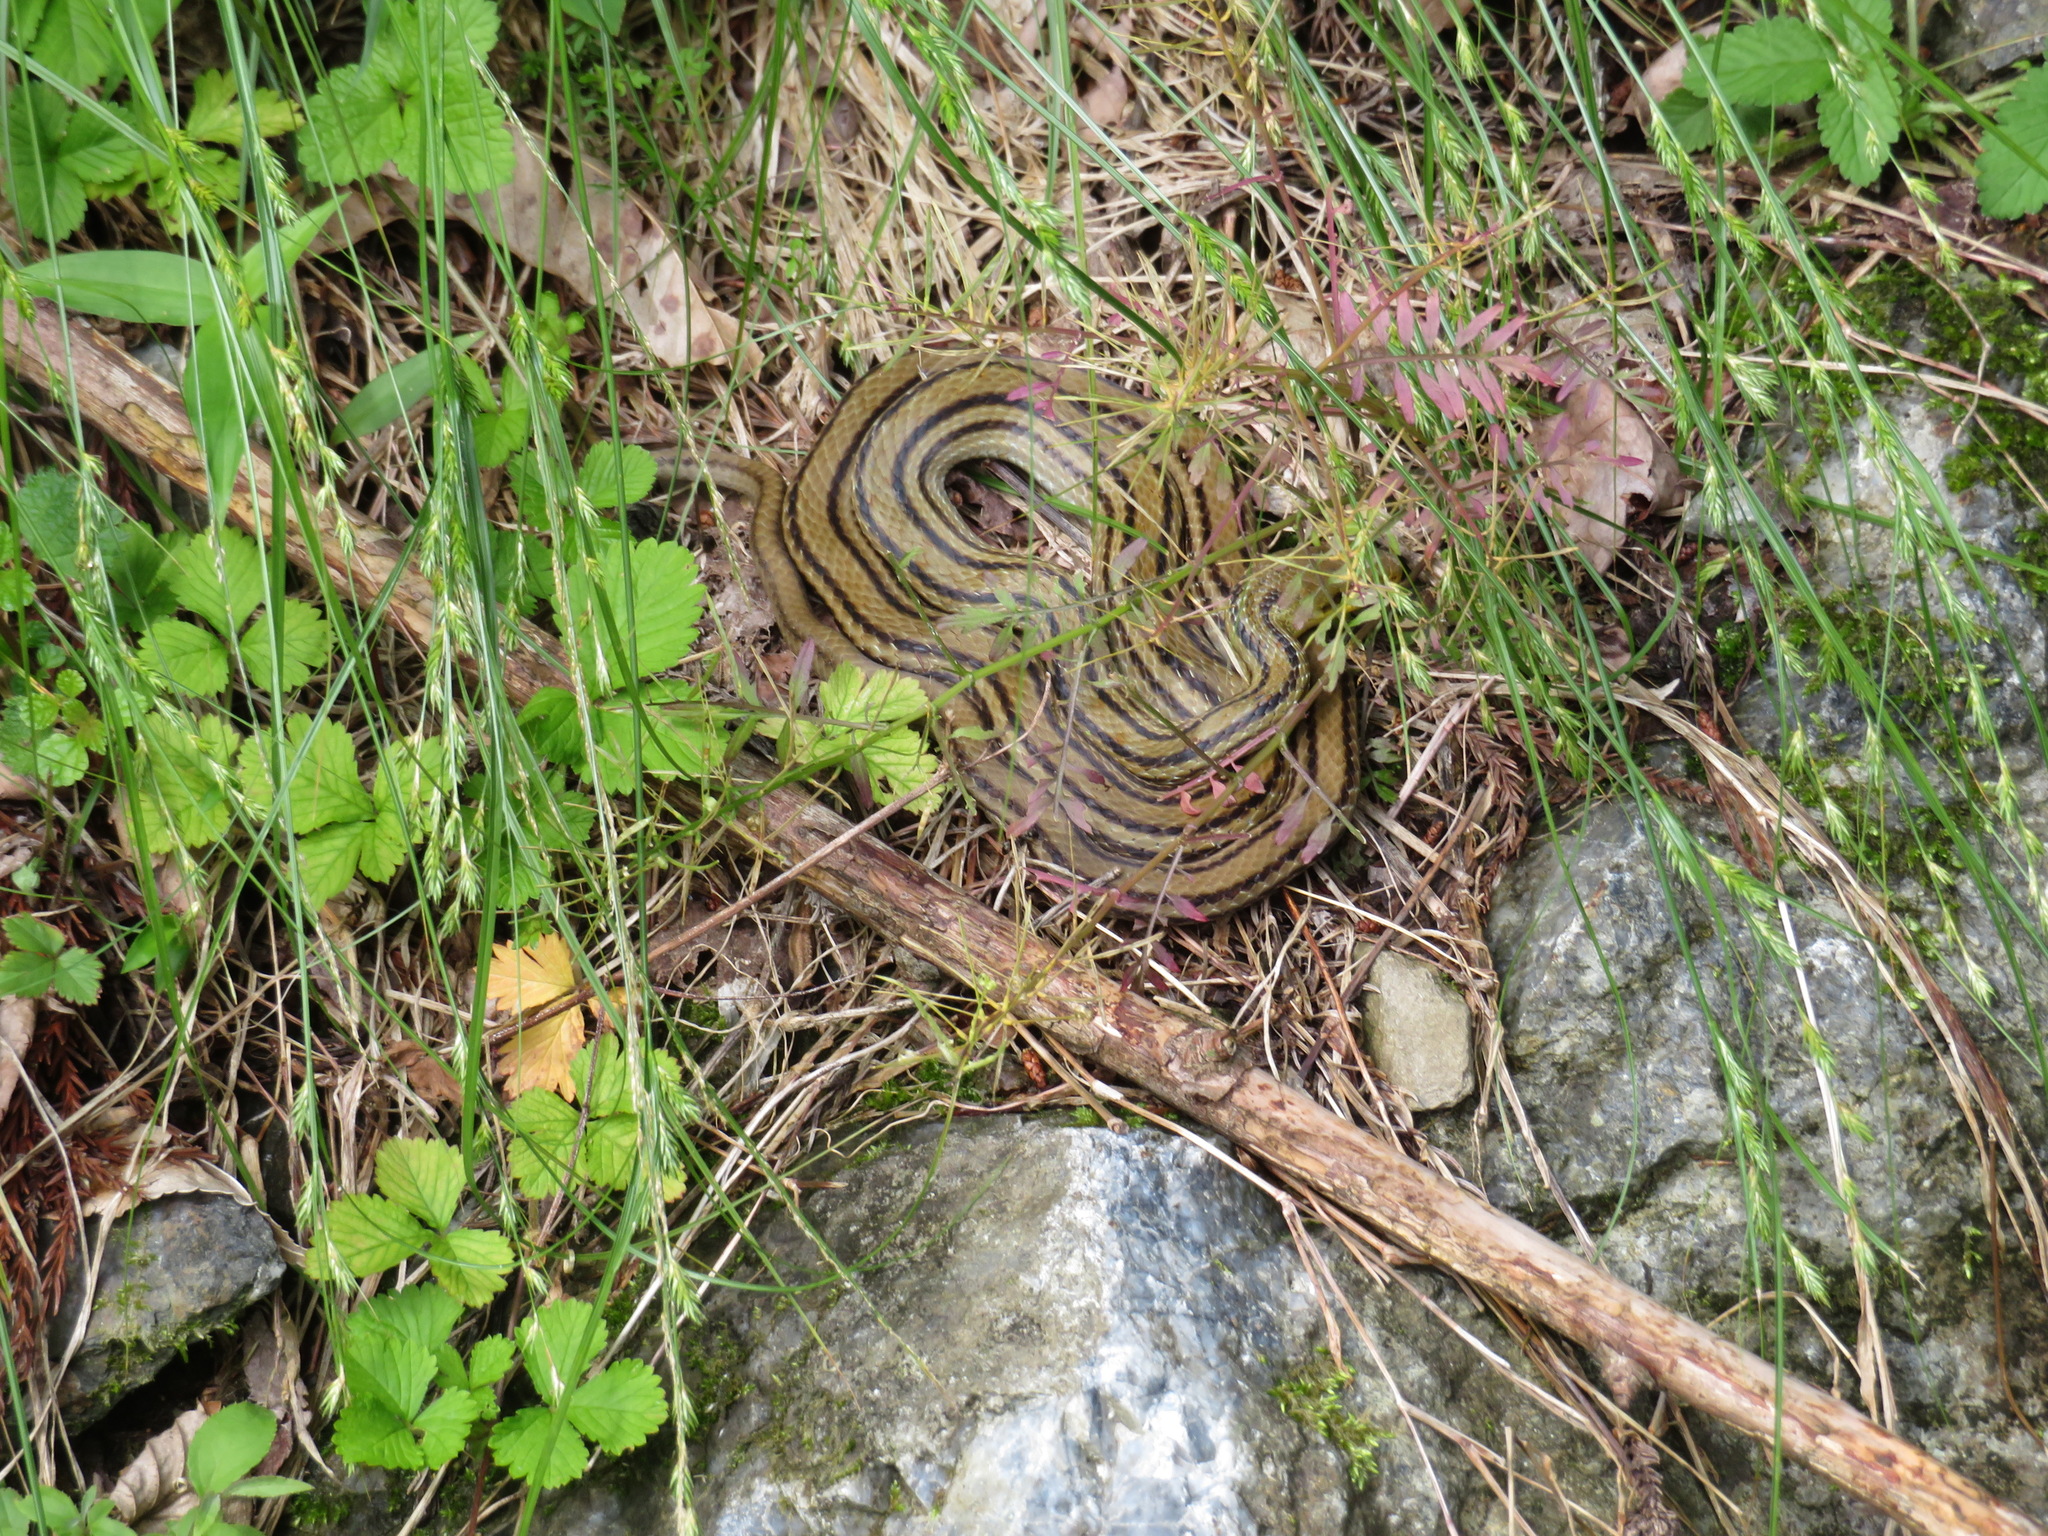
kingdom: Animalia
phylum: Chordata
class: Squamata
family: Colubridae
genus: Elaphe
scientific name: Elaphe quadrivirgata
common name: Japanese four-lined ratsnake
